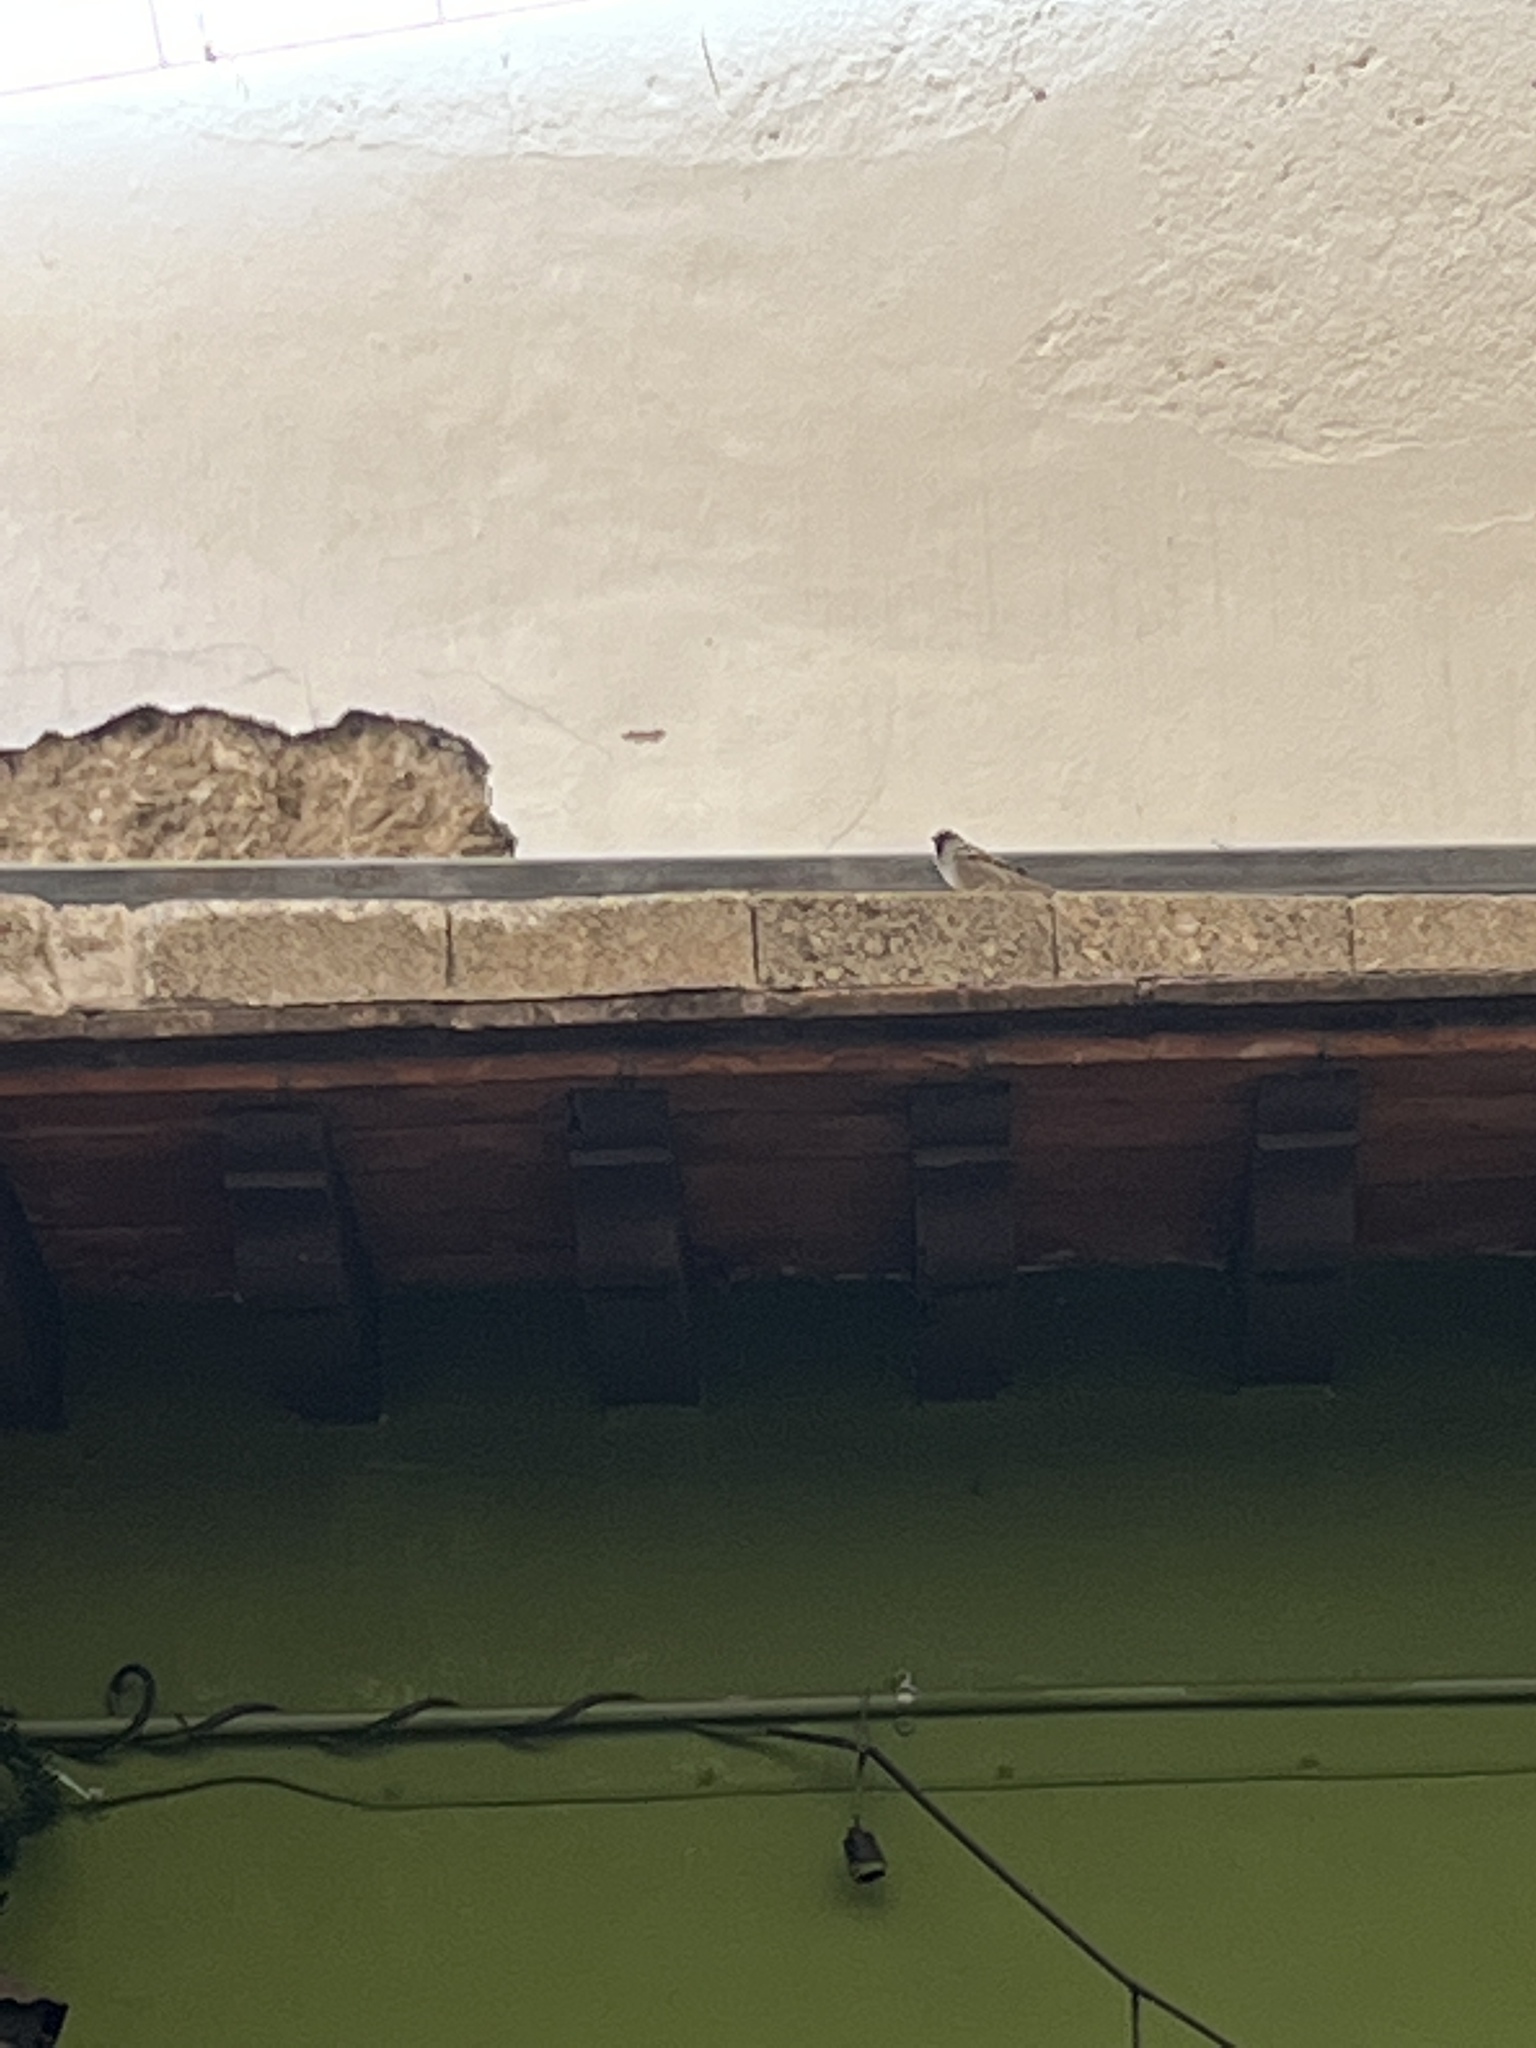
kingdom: Animalia
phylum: Chordata
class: Aves
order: Passeriformes
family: Passeridae
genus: Passer
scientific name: Passer domesticus
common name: House sparrow
